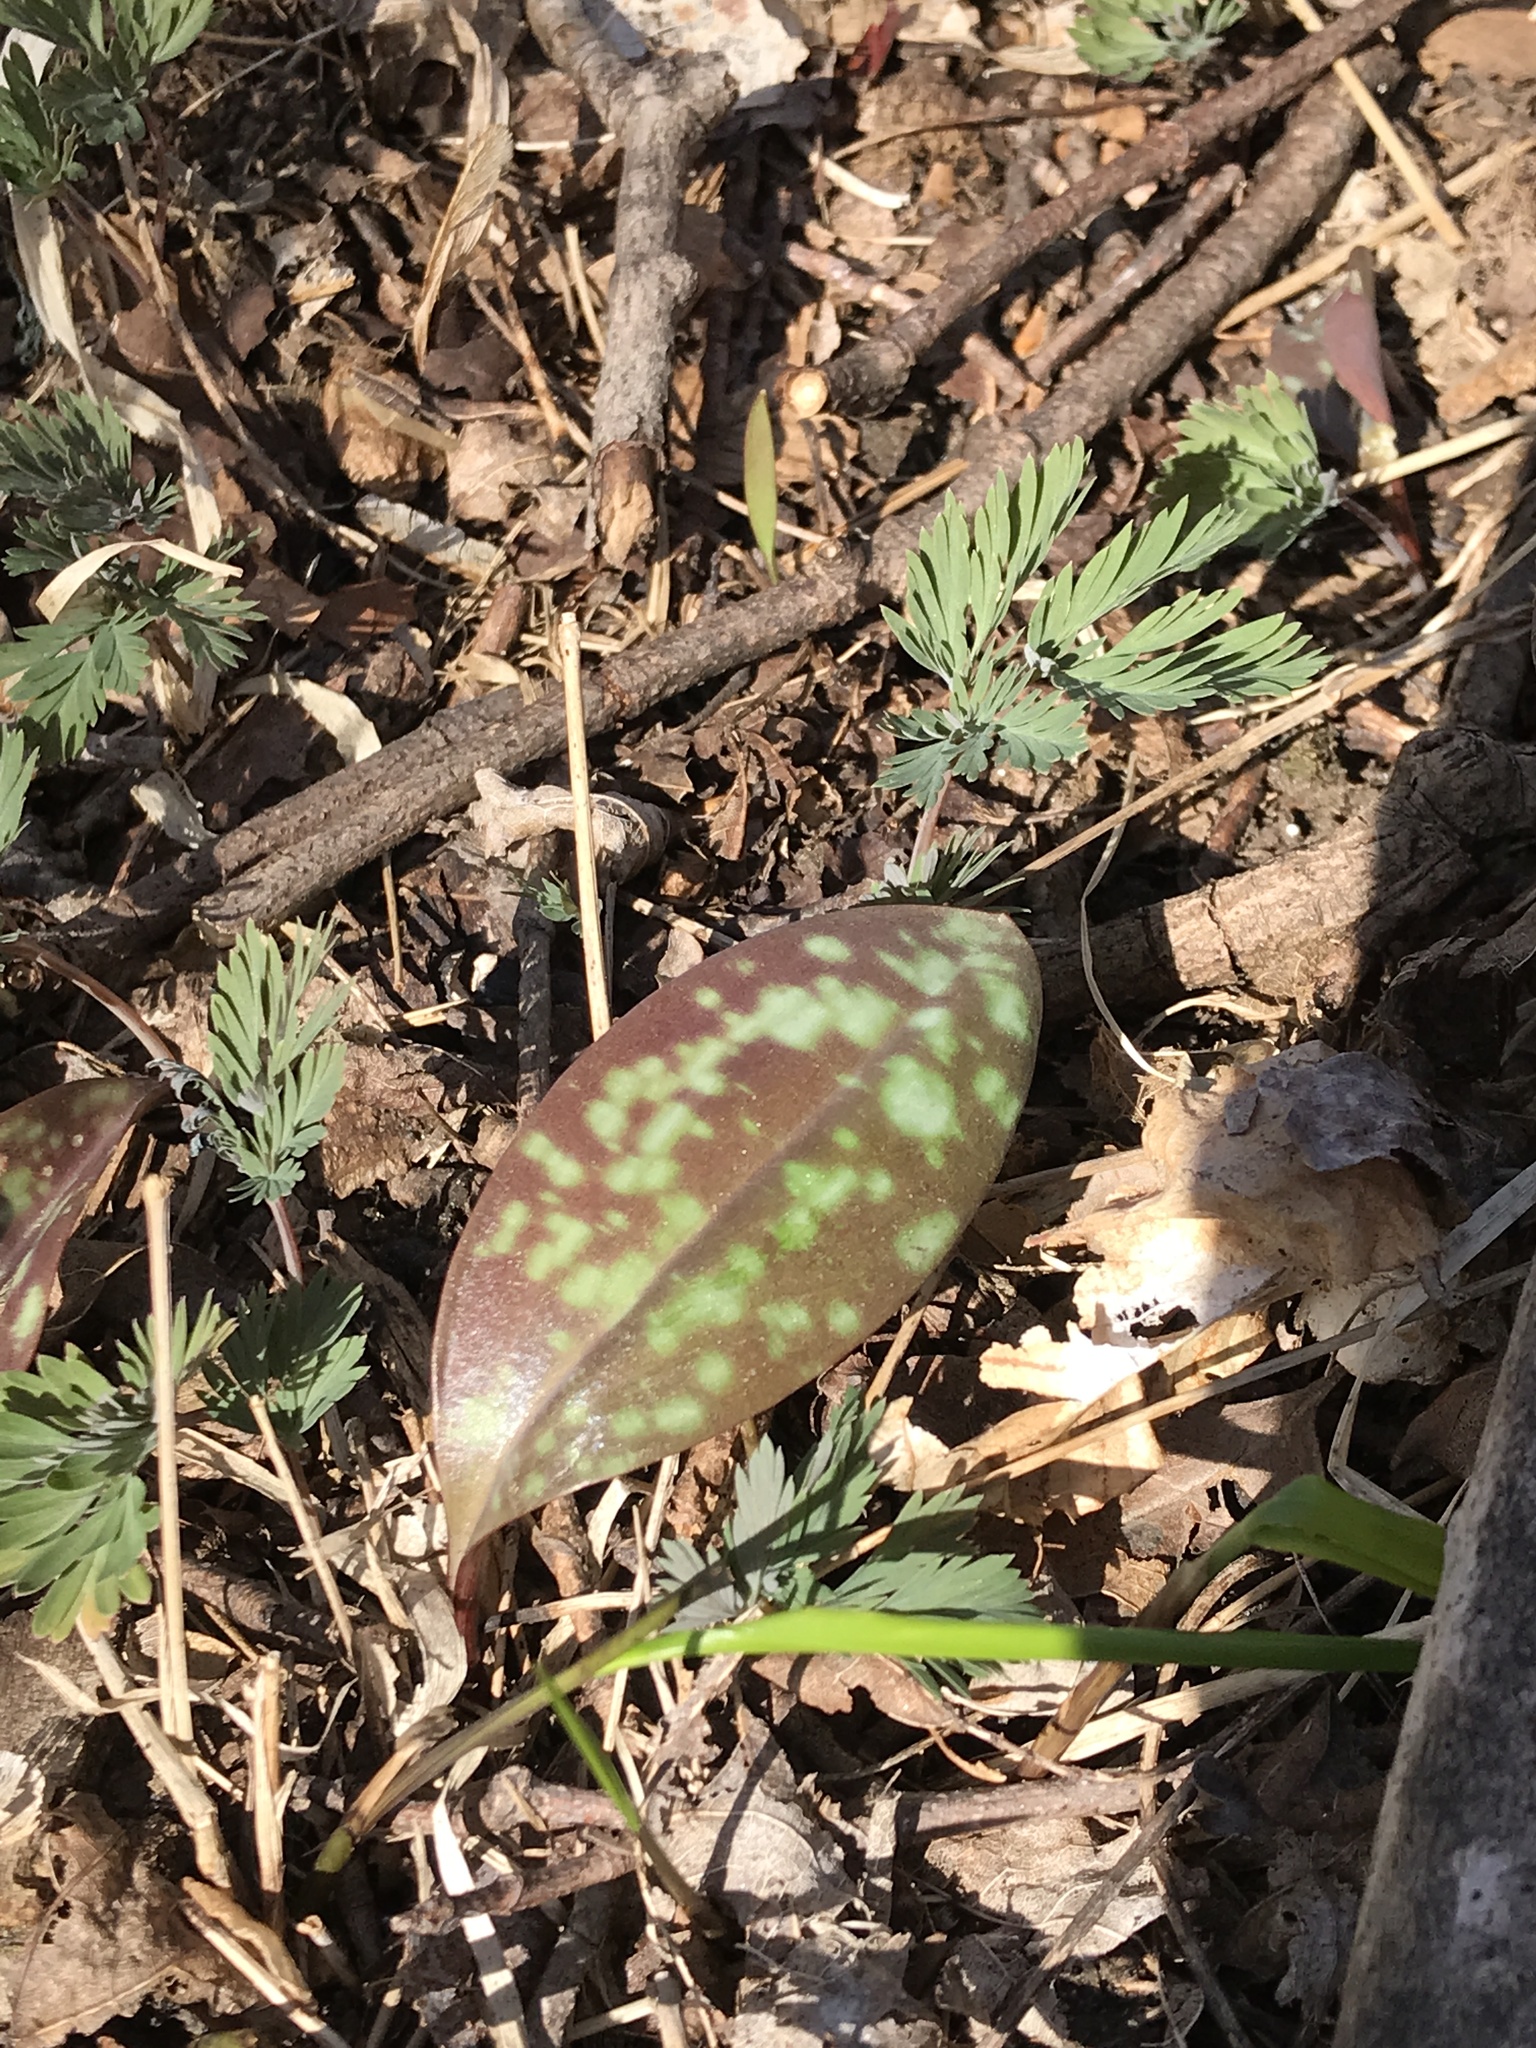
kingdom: Plantae
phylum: Tracheophyta
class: Liliopsida
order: Liliales
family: Liliaceae
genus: Erythronium
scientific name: Erythronium americanum
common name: Yellow adder's-tongue
